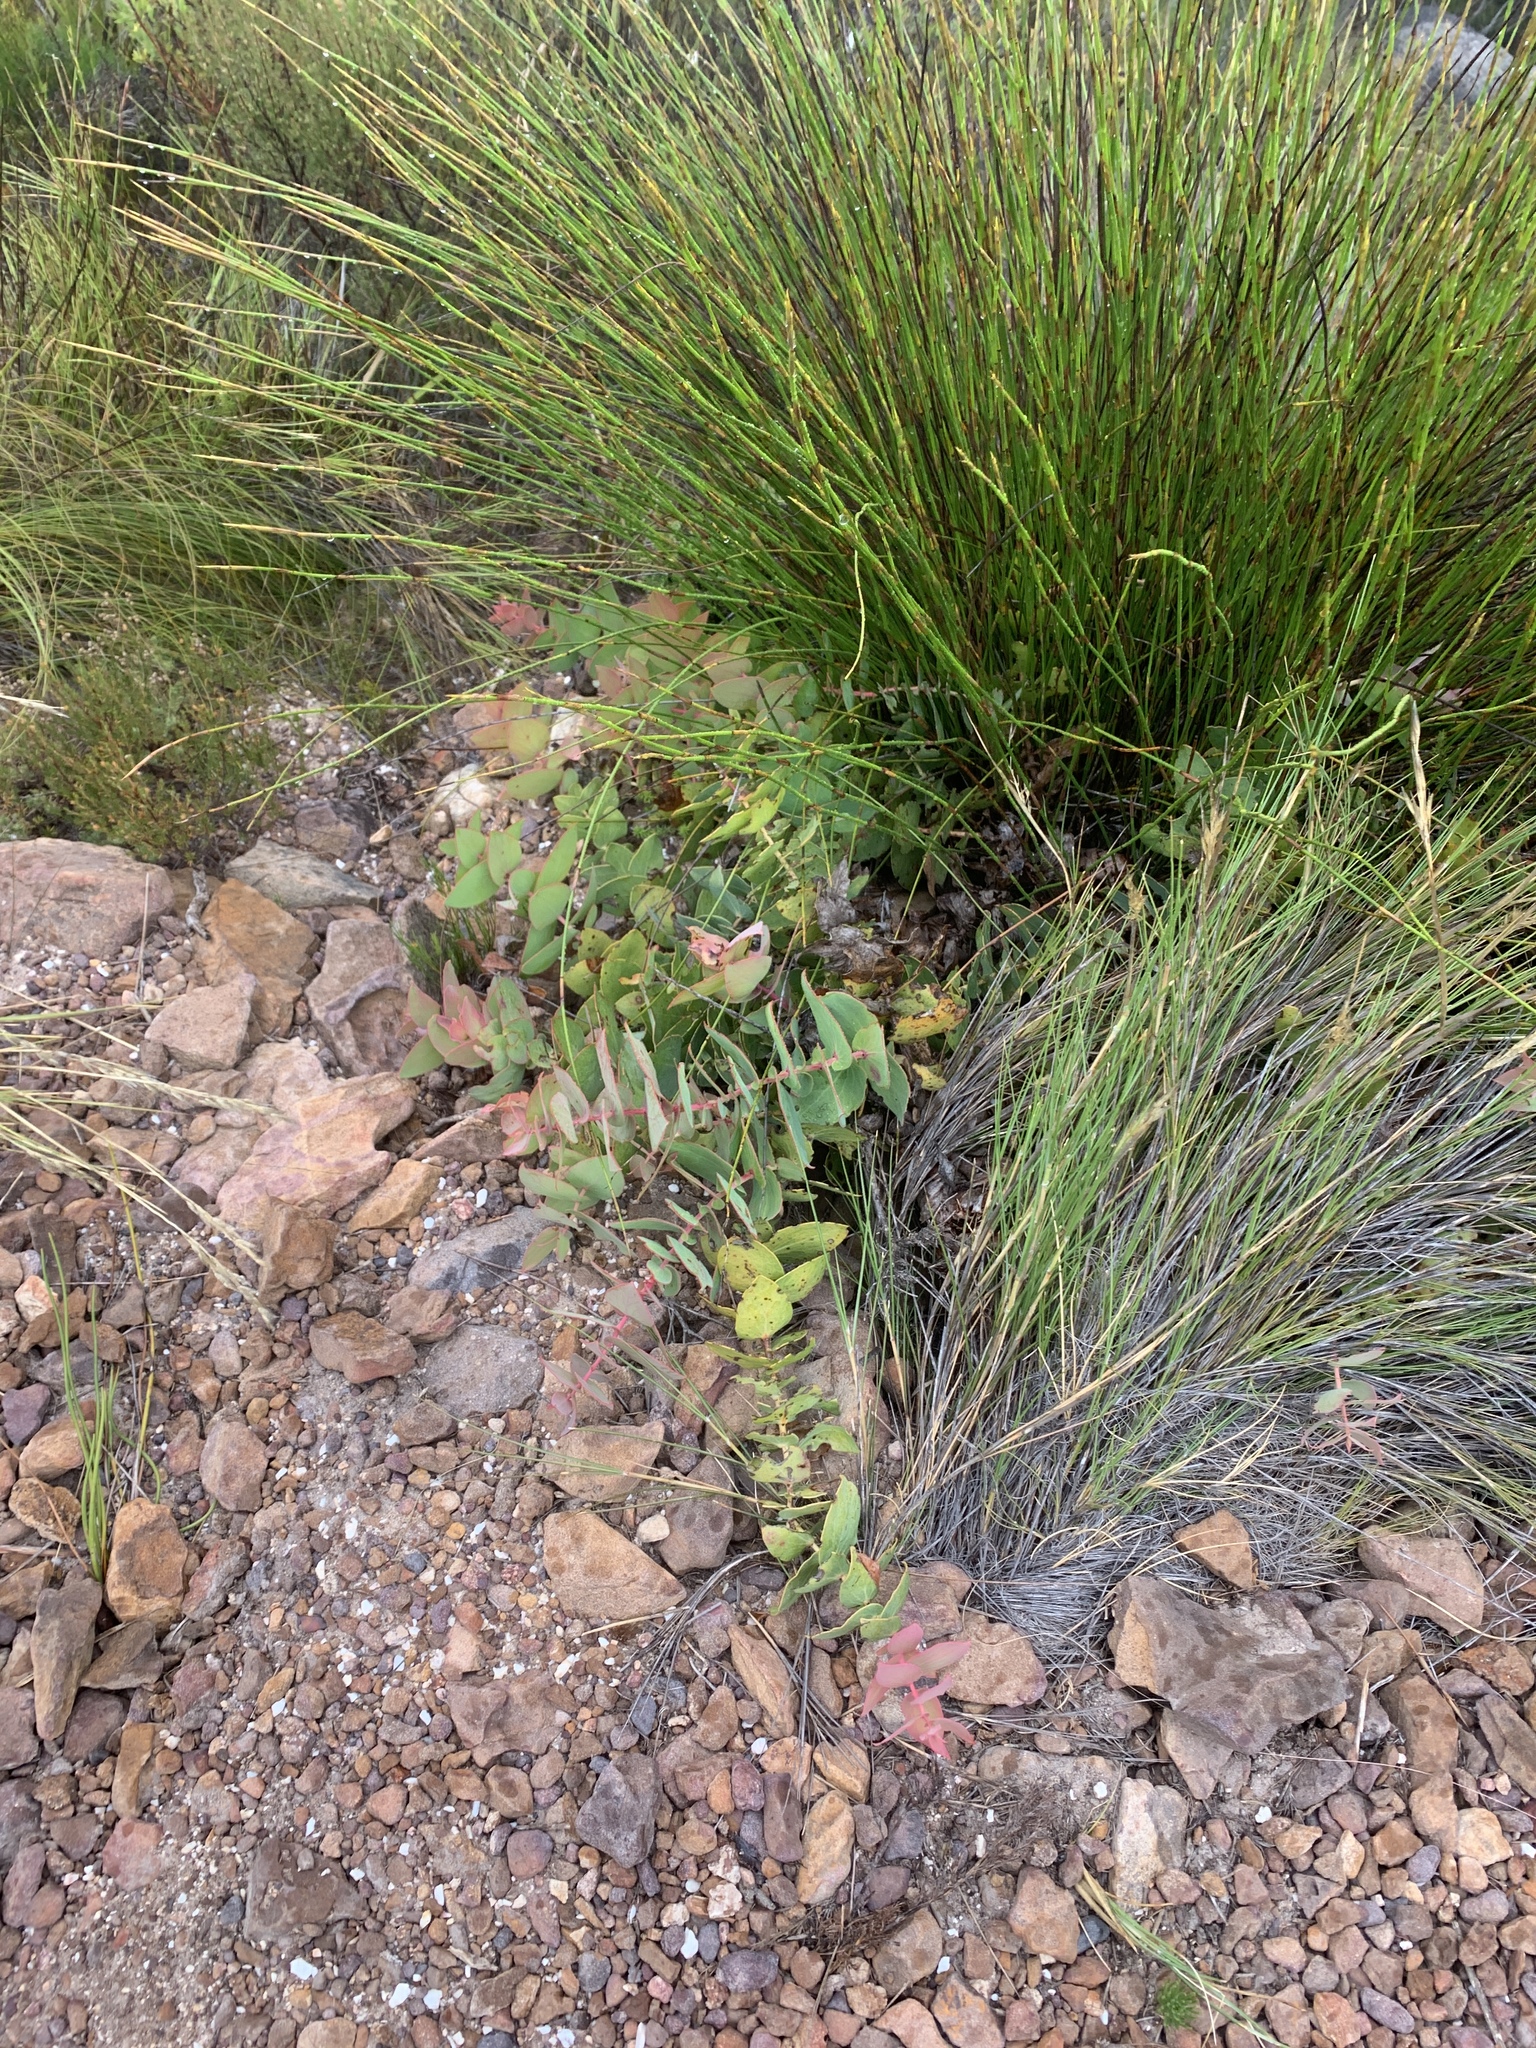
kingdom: Plantae
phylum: Tracheophyta
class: Magnoliopsida
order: Proteales
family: Proteaceae
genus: Protea
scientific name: Protea amplexicaulis
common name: Clasping-leaf sugarbush
